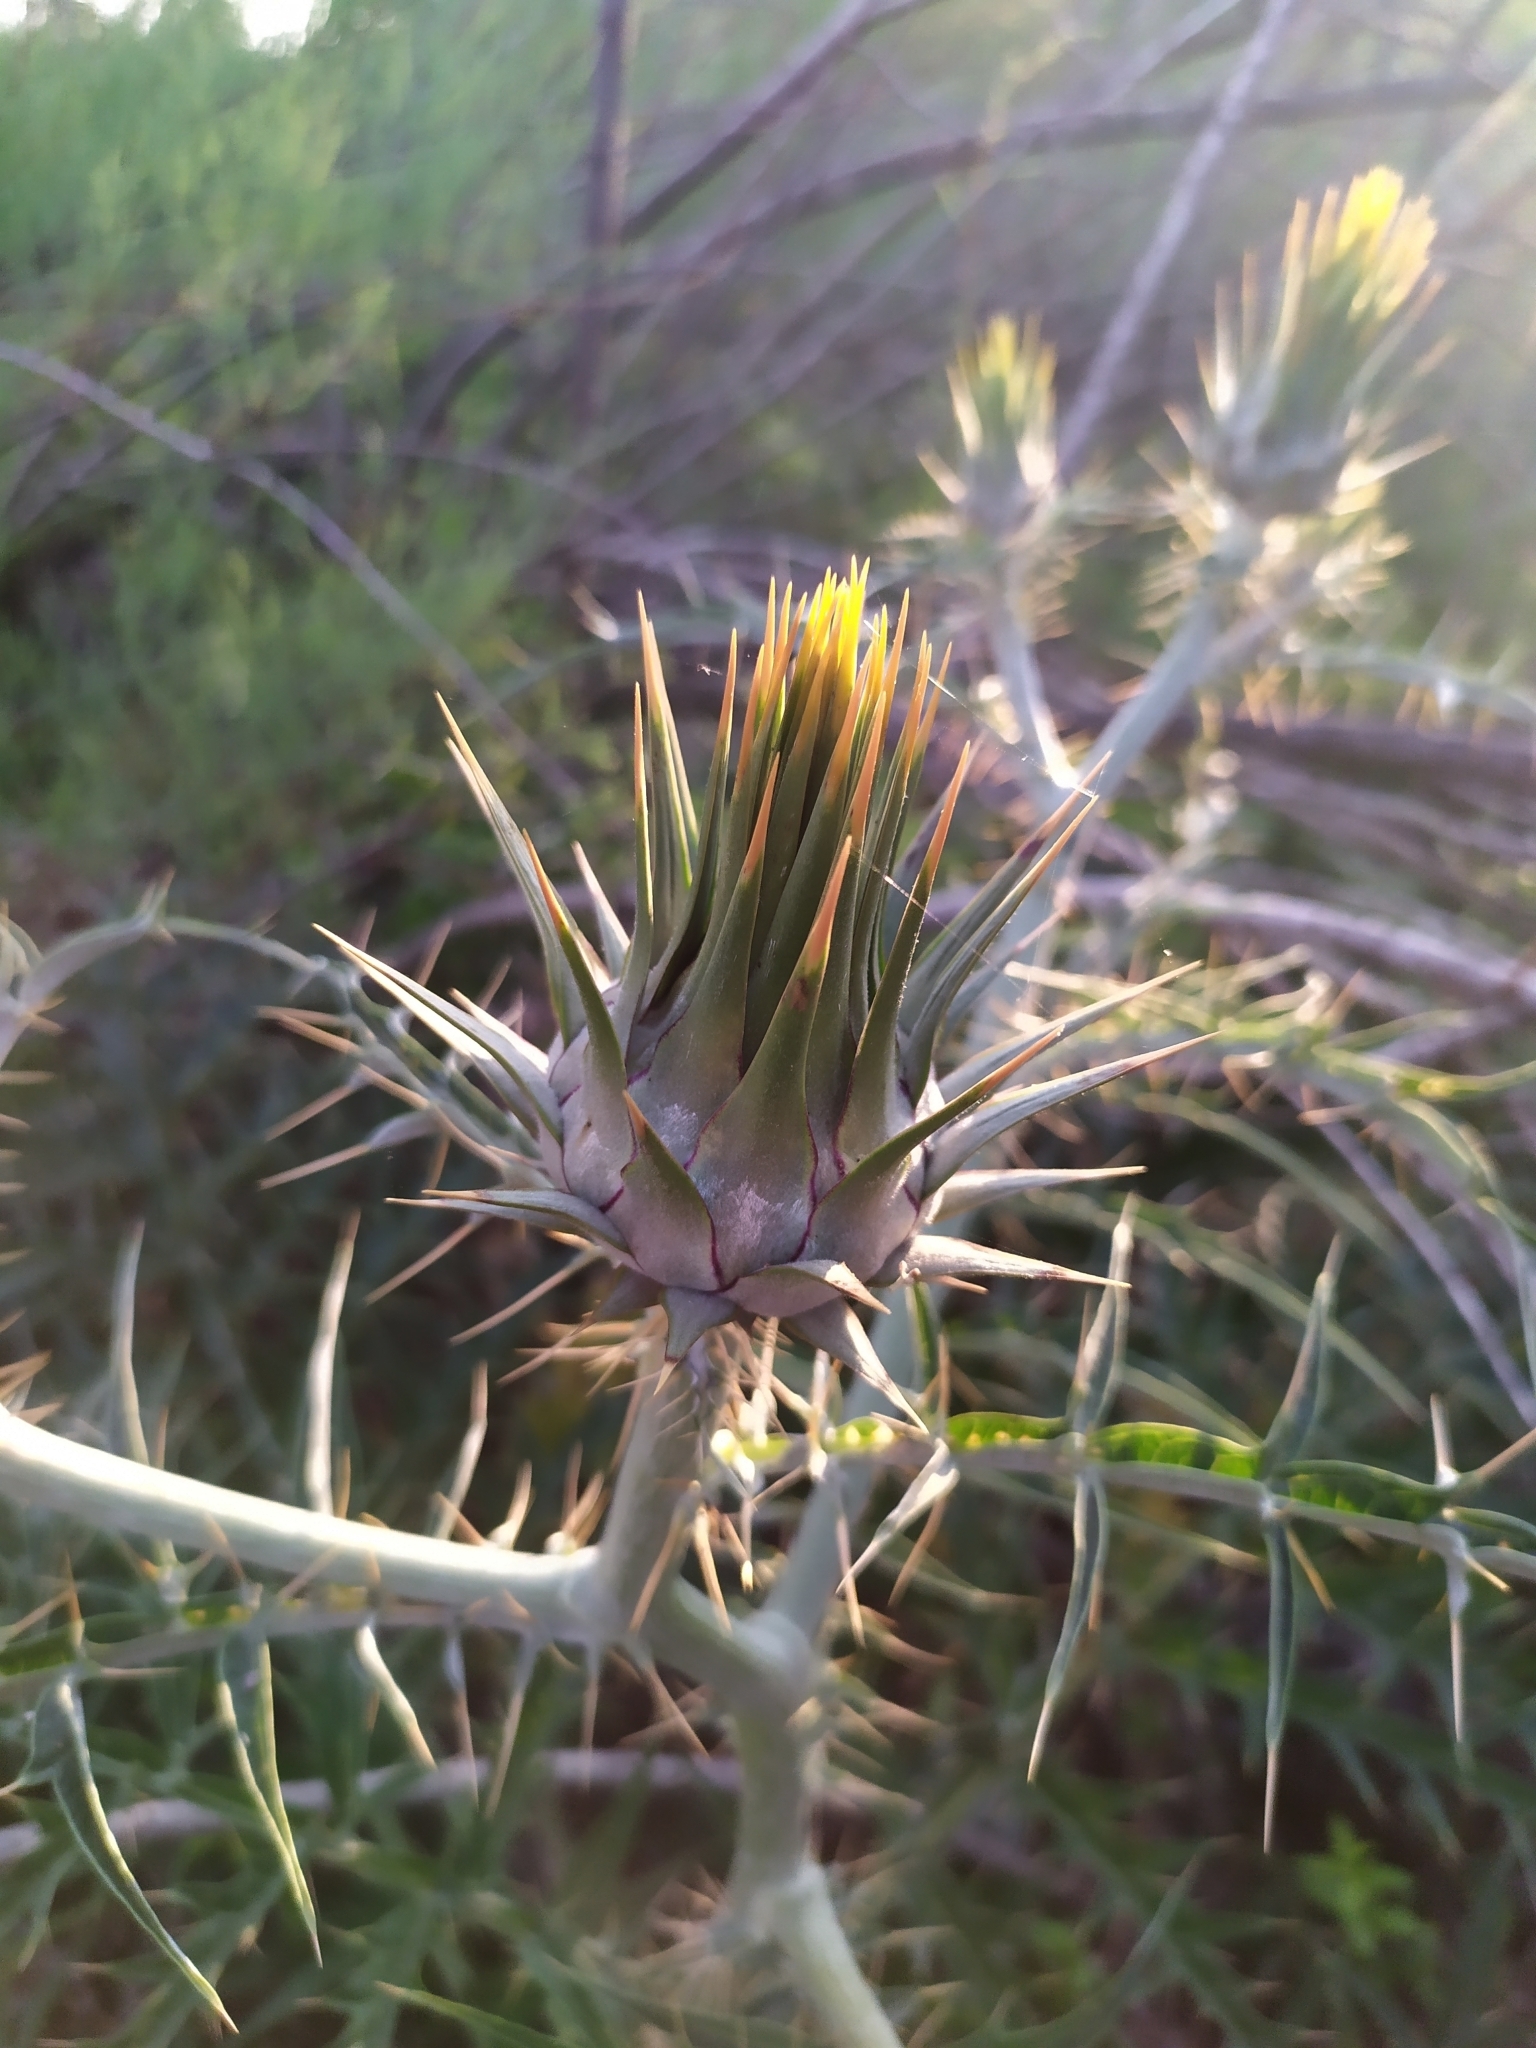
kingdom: Plantae
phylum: Tracheophyta
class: Magnoliopsida
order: Asterales
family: Asteraceae
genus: Cynara
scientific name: Cynara cardunculus
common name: Globe artichoke
